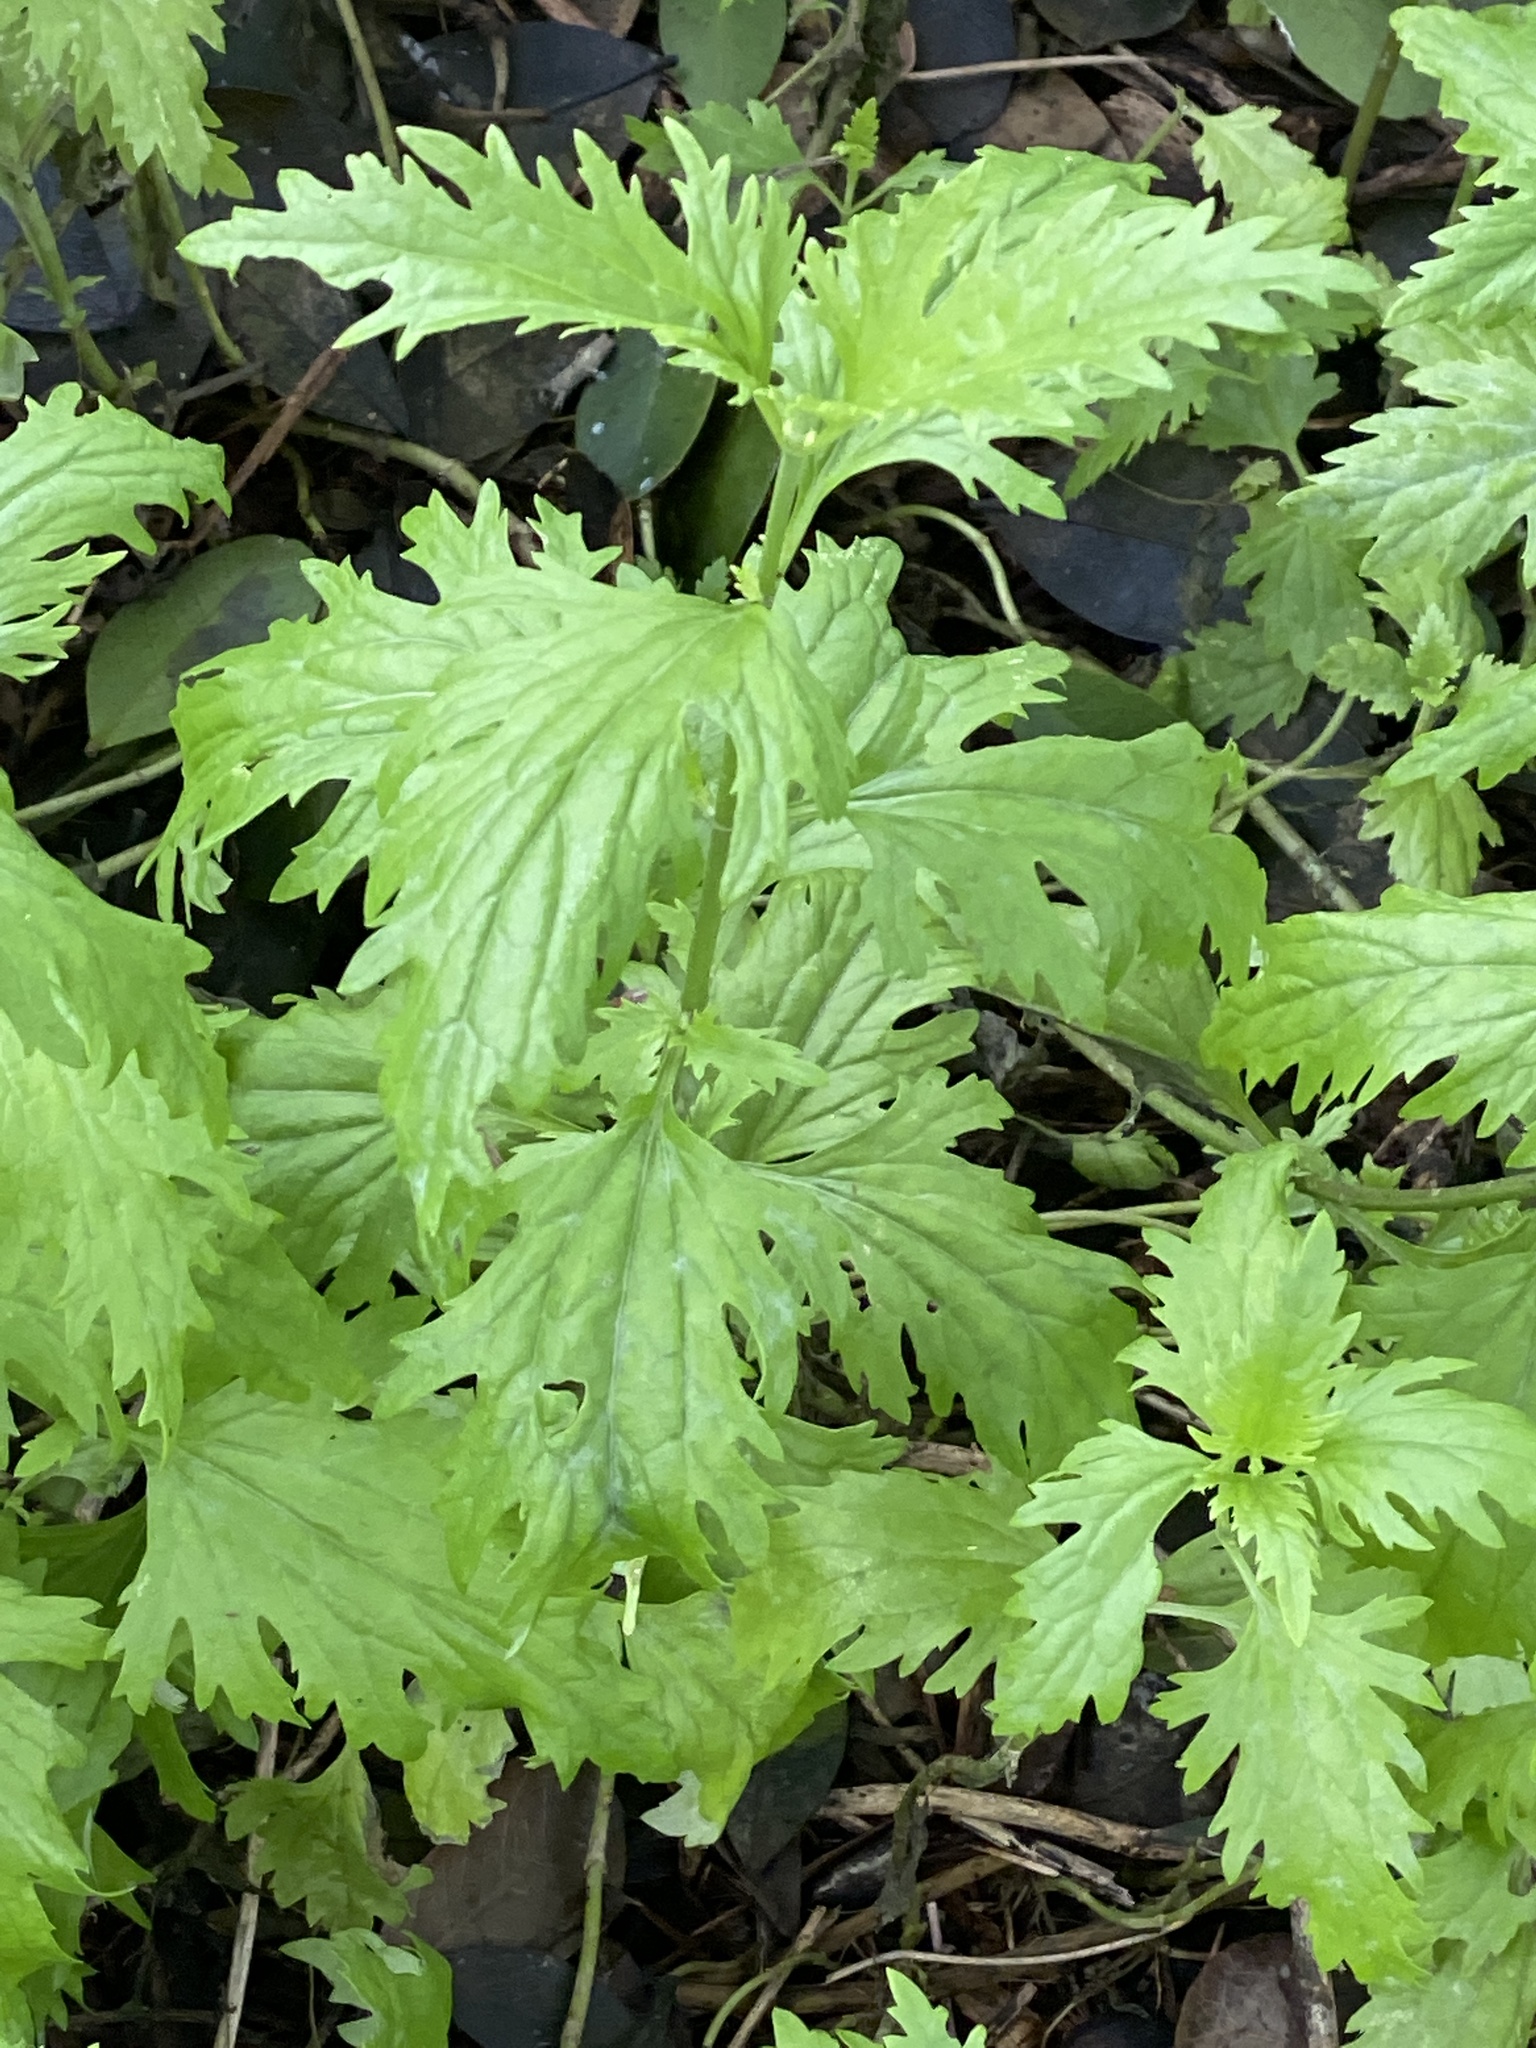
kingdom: Plantae
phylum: Tracheophyta
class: Magnoliopsida
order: Asterales
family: Asteraceae
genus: Conoclinium
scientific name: Conoclinium dissectum
